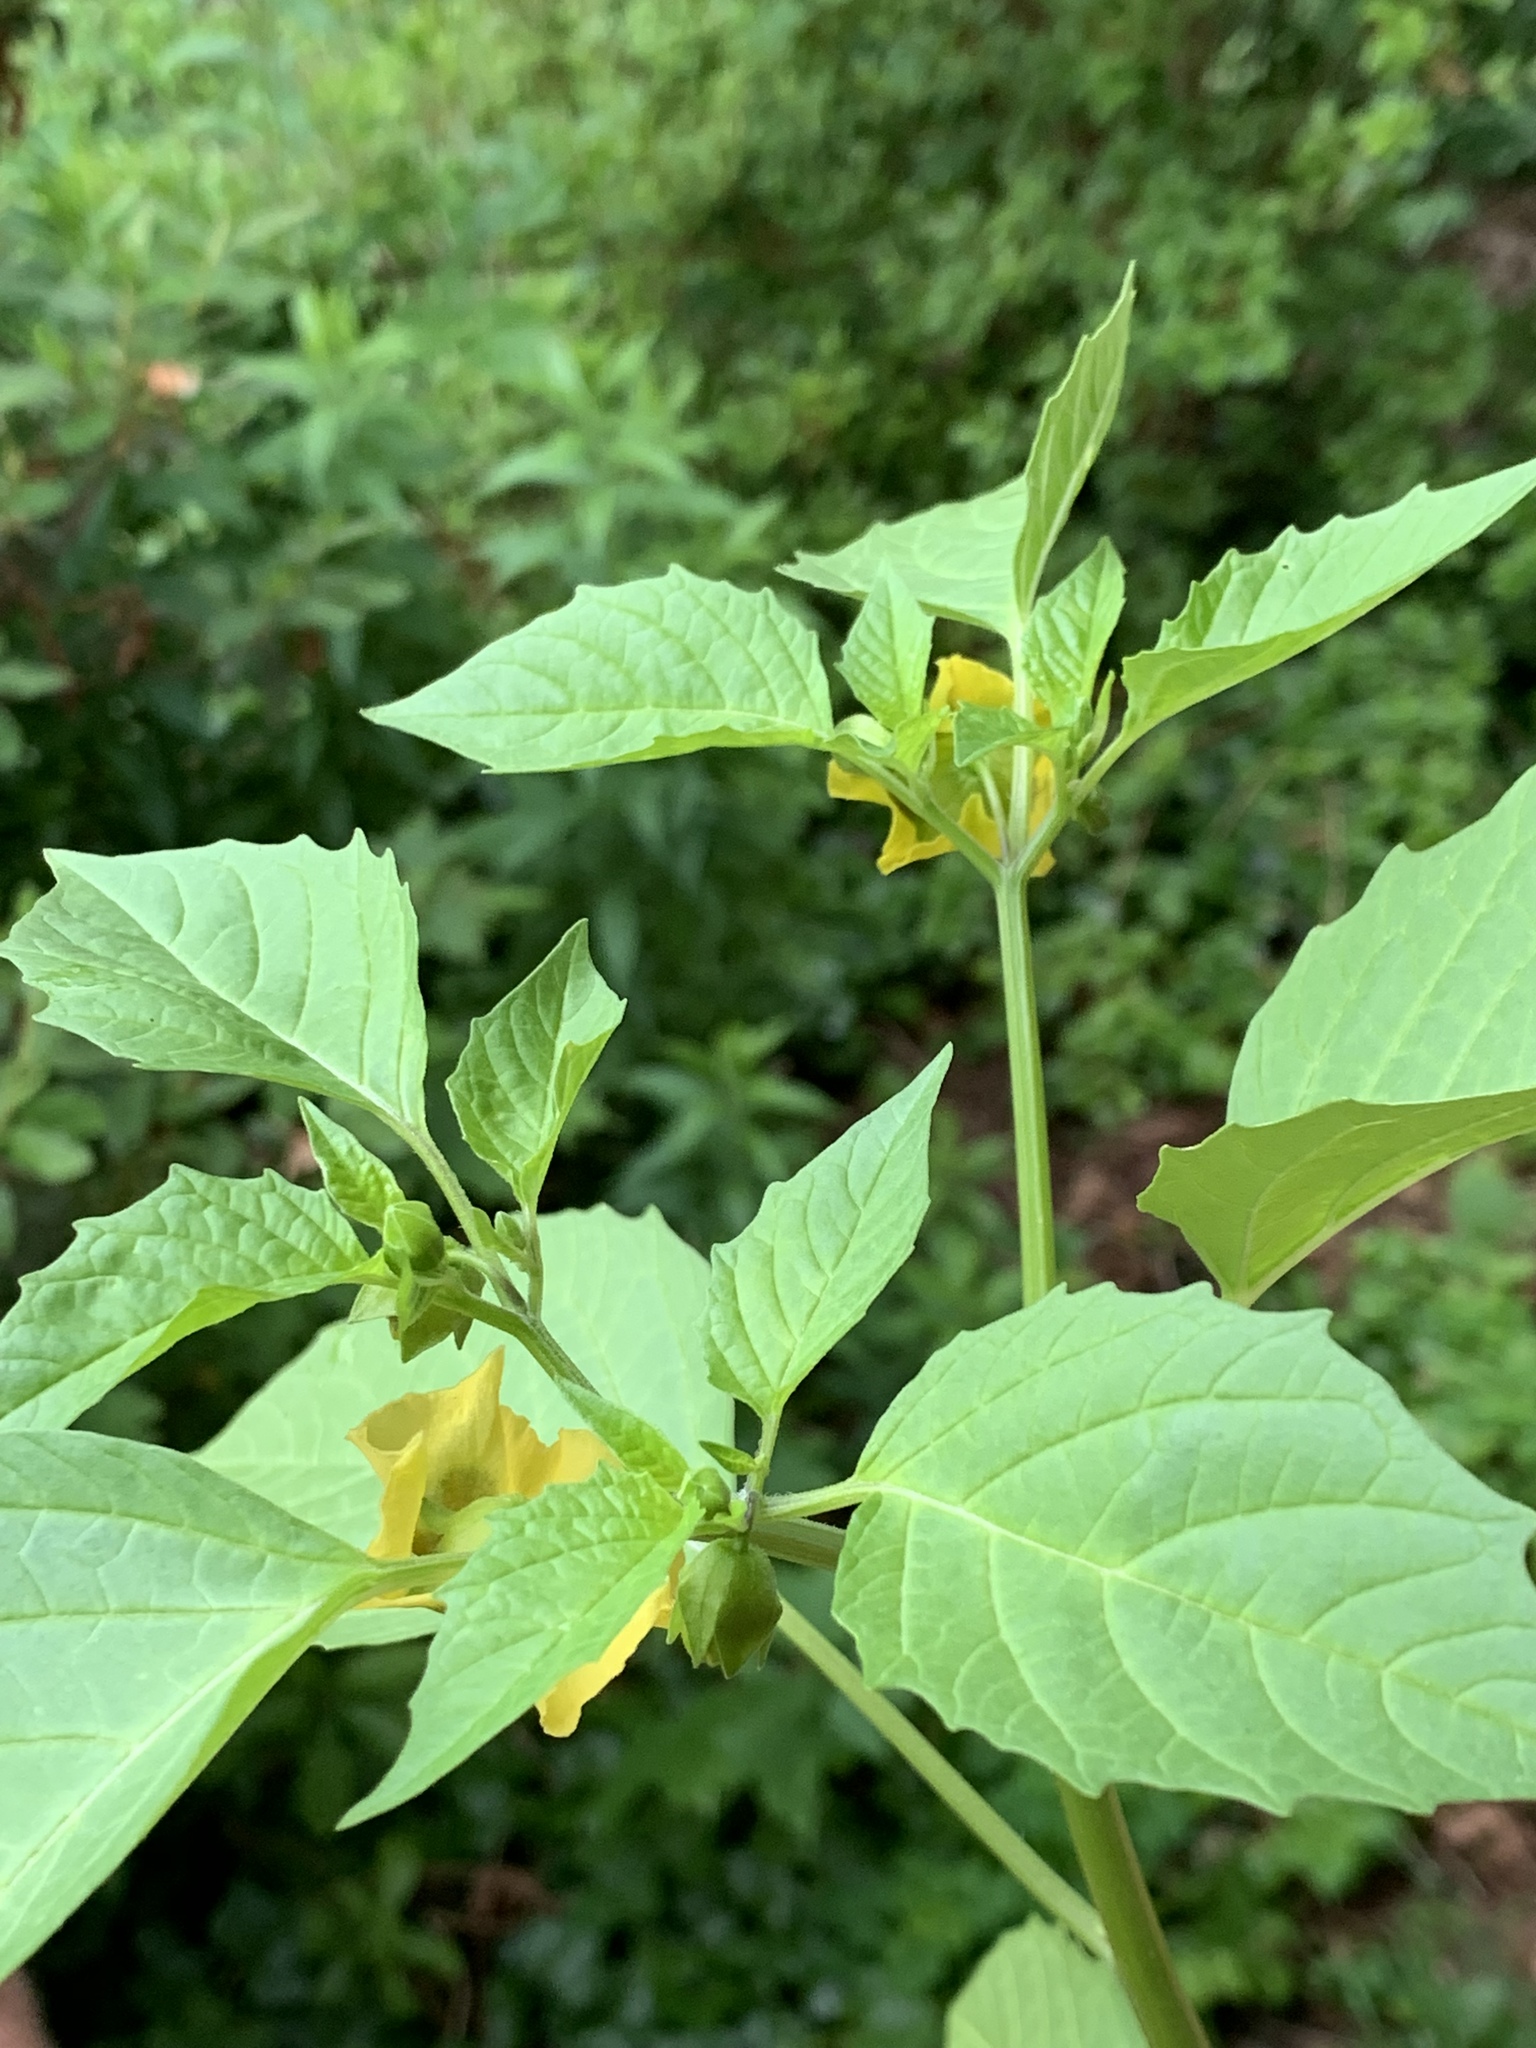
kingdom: Plantae
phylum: Tracheophyta
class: Magnoliopsida
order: Solanales
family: Solanaceae
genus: Physalis
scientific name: Physalis philadelphica
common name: Husk-tomato
